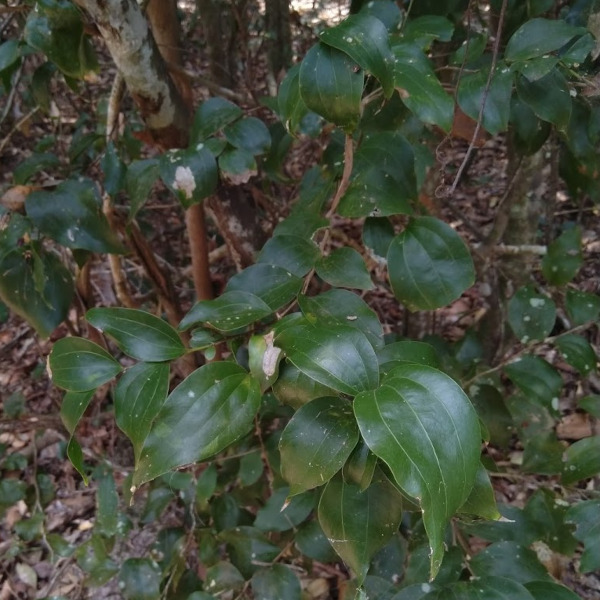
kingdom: Plantae
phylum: Tracheophyta
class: Magnoliopsida
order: Fabales
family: Fabaceae
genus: Acacia
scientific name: Acacia bakeri
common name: Scrub wattle
